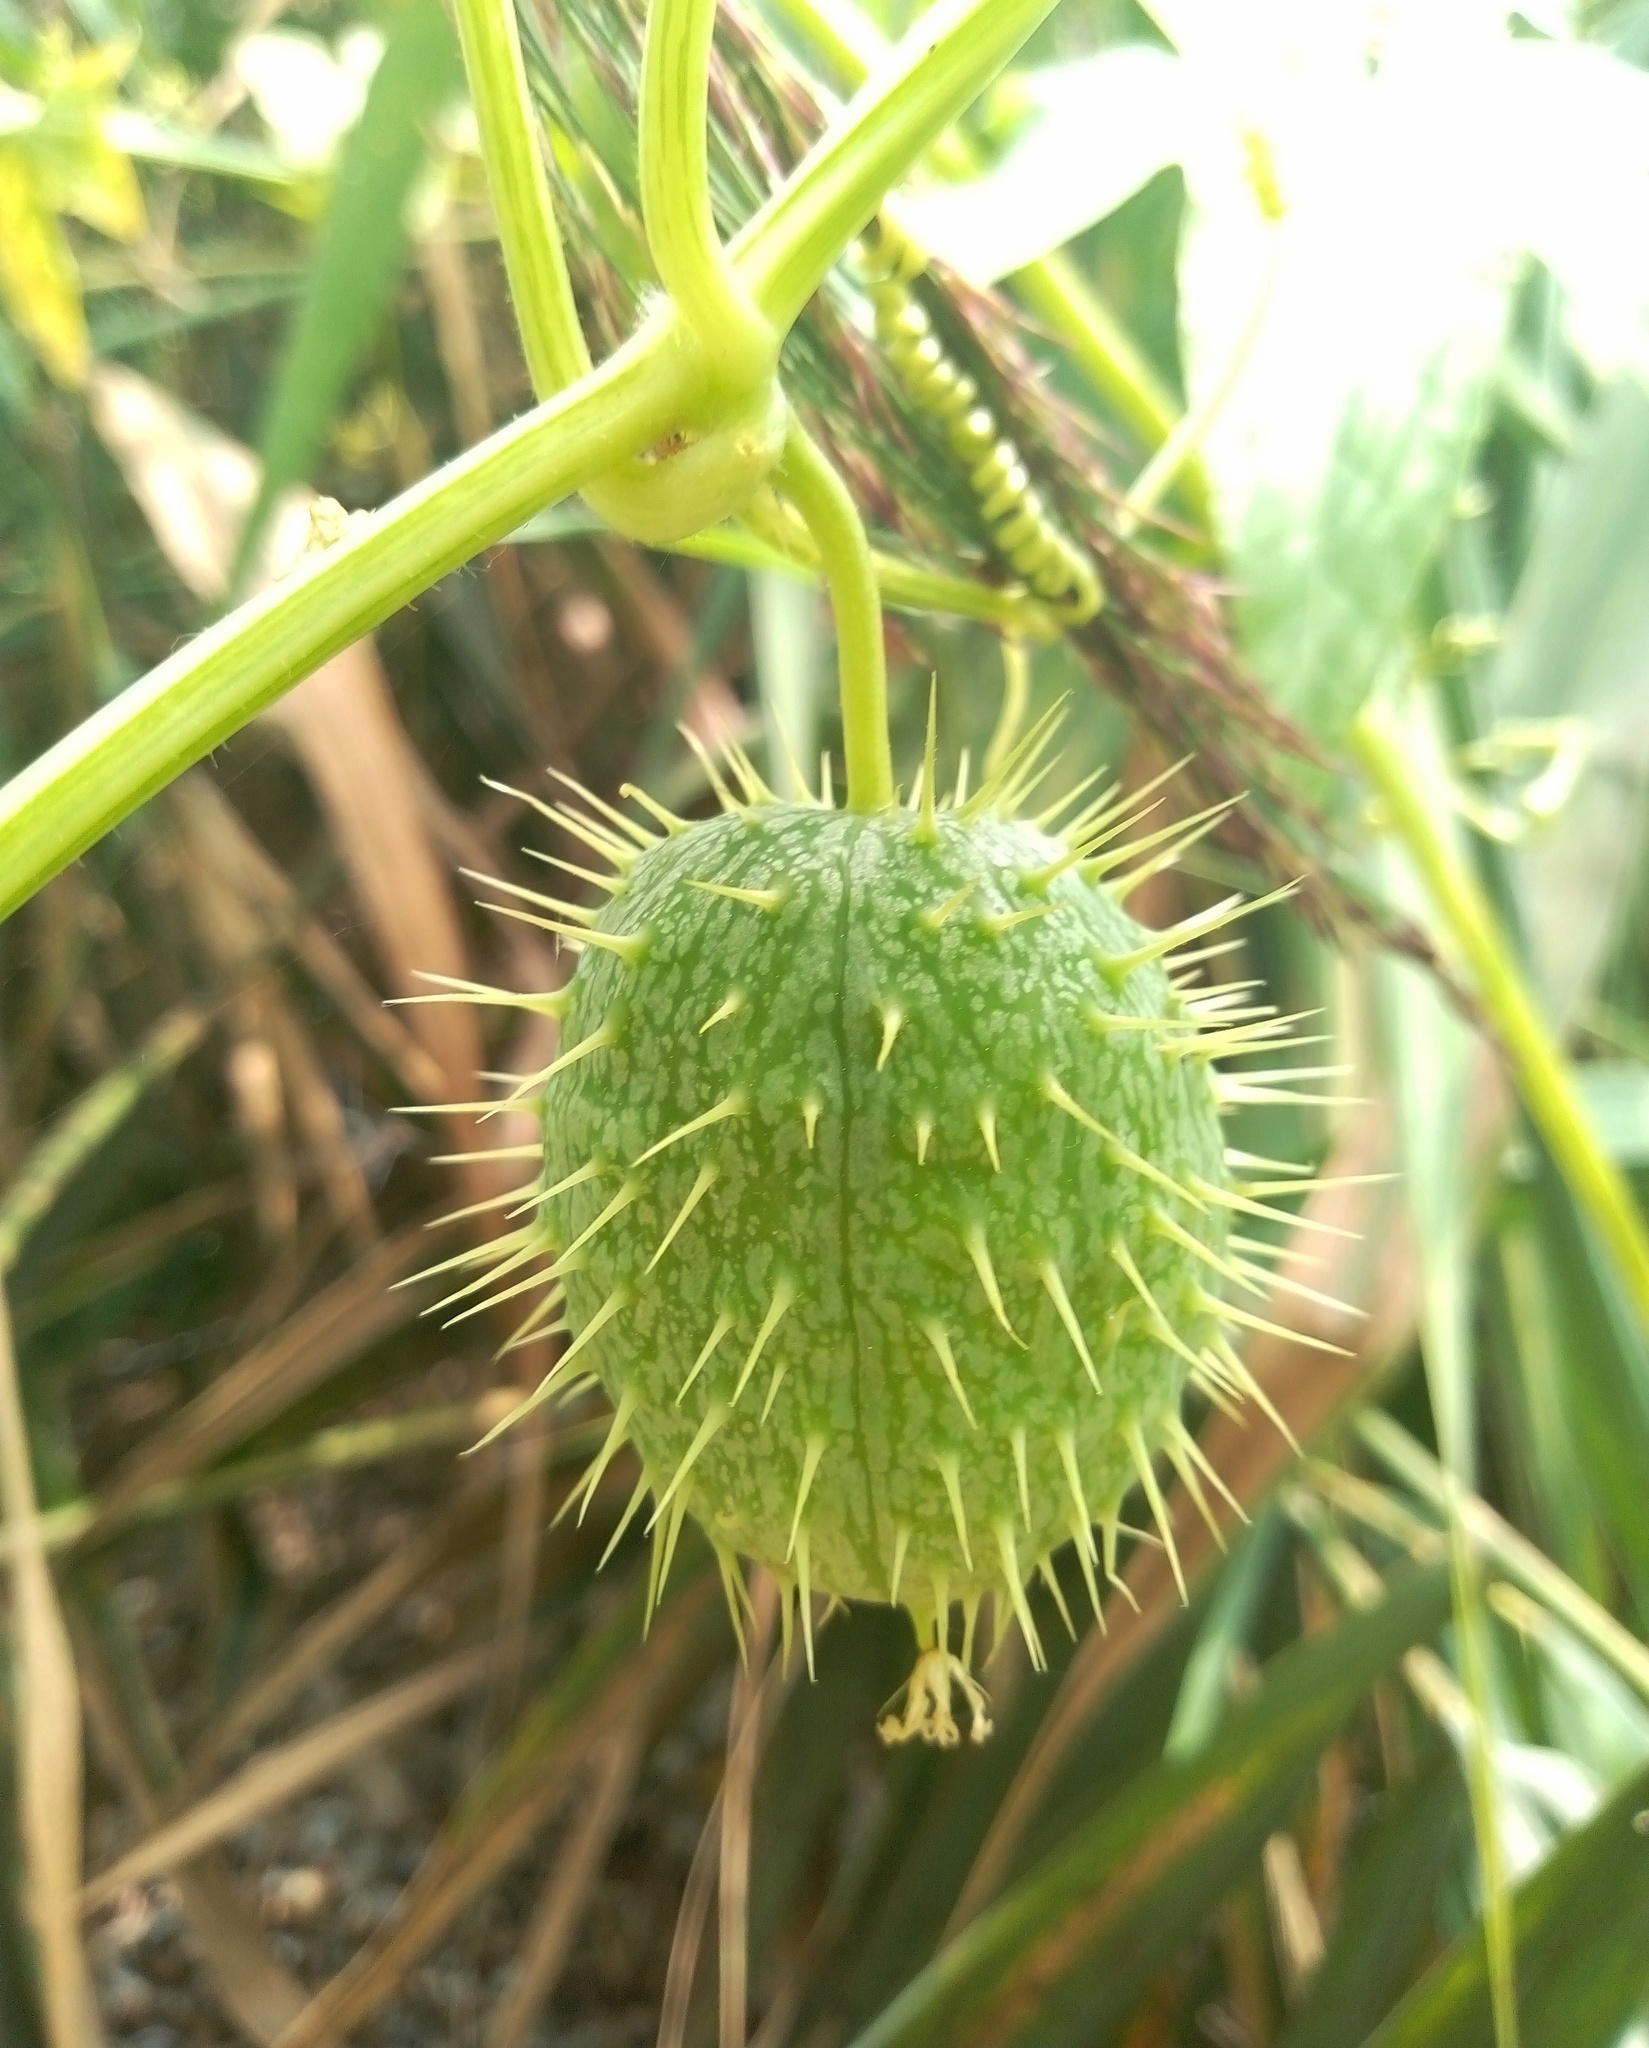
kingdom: Plantae
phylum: Tracheophyta
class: Magnoliopsida
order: Cucurbitales
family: Cucurbitaceae
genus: Echinocystis
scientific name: Echinocystis lobata
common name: Wild cucumber
